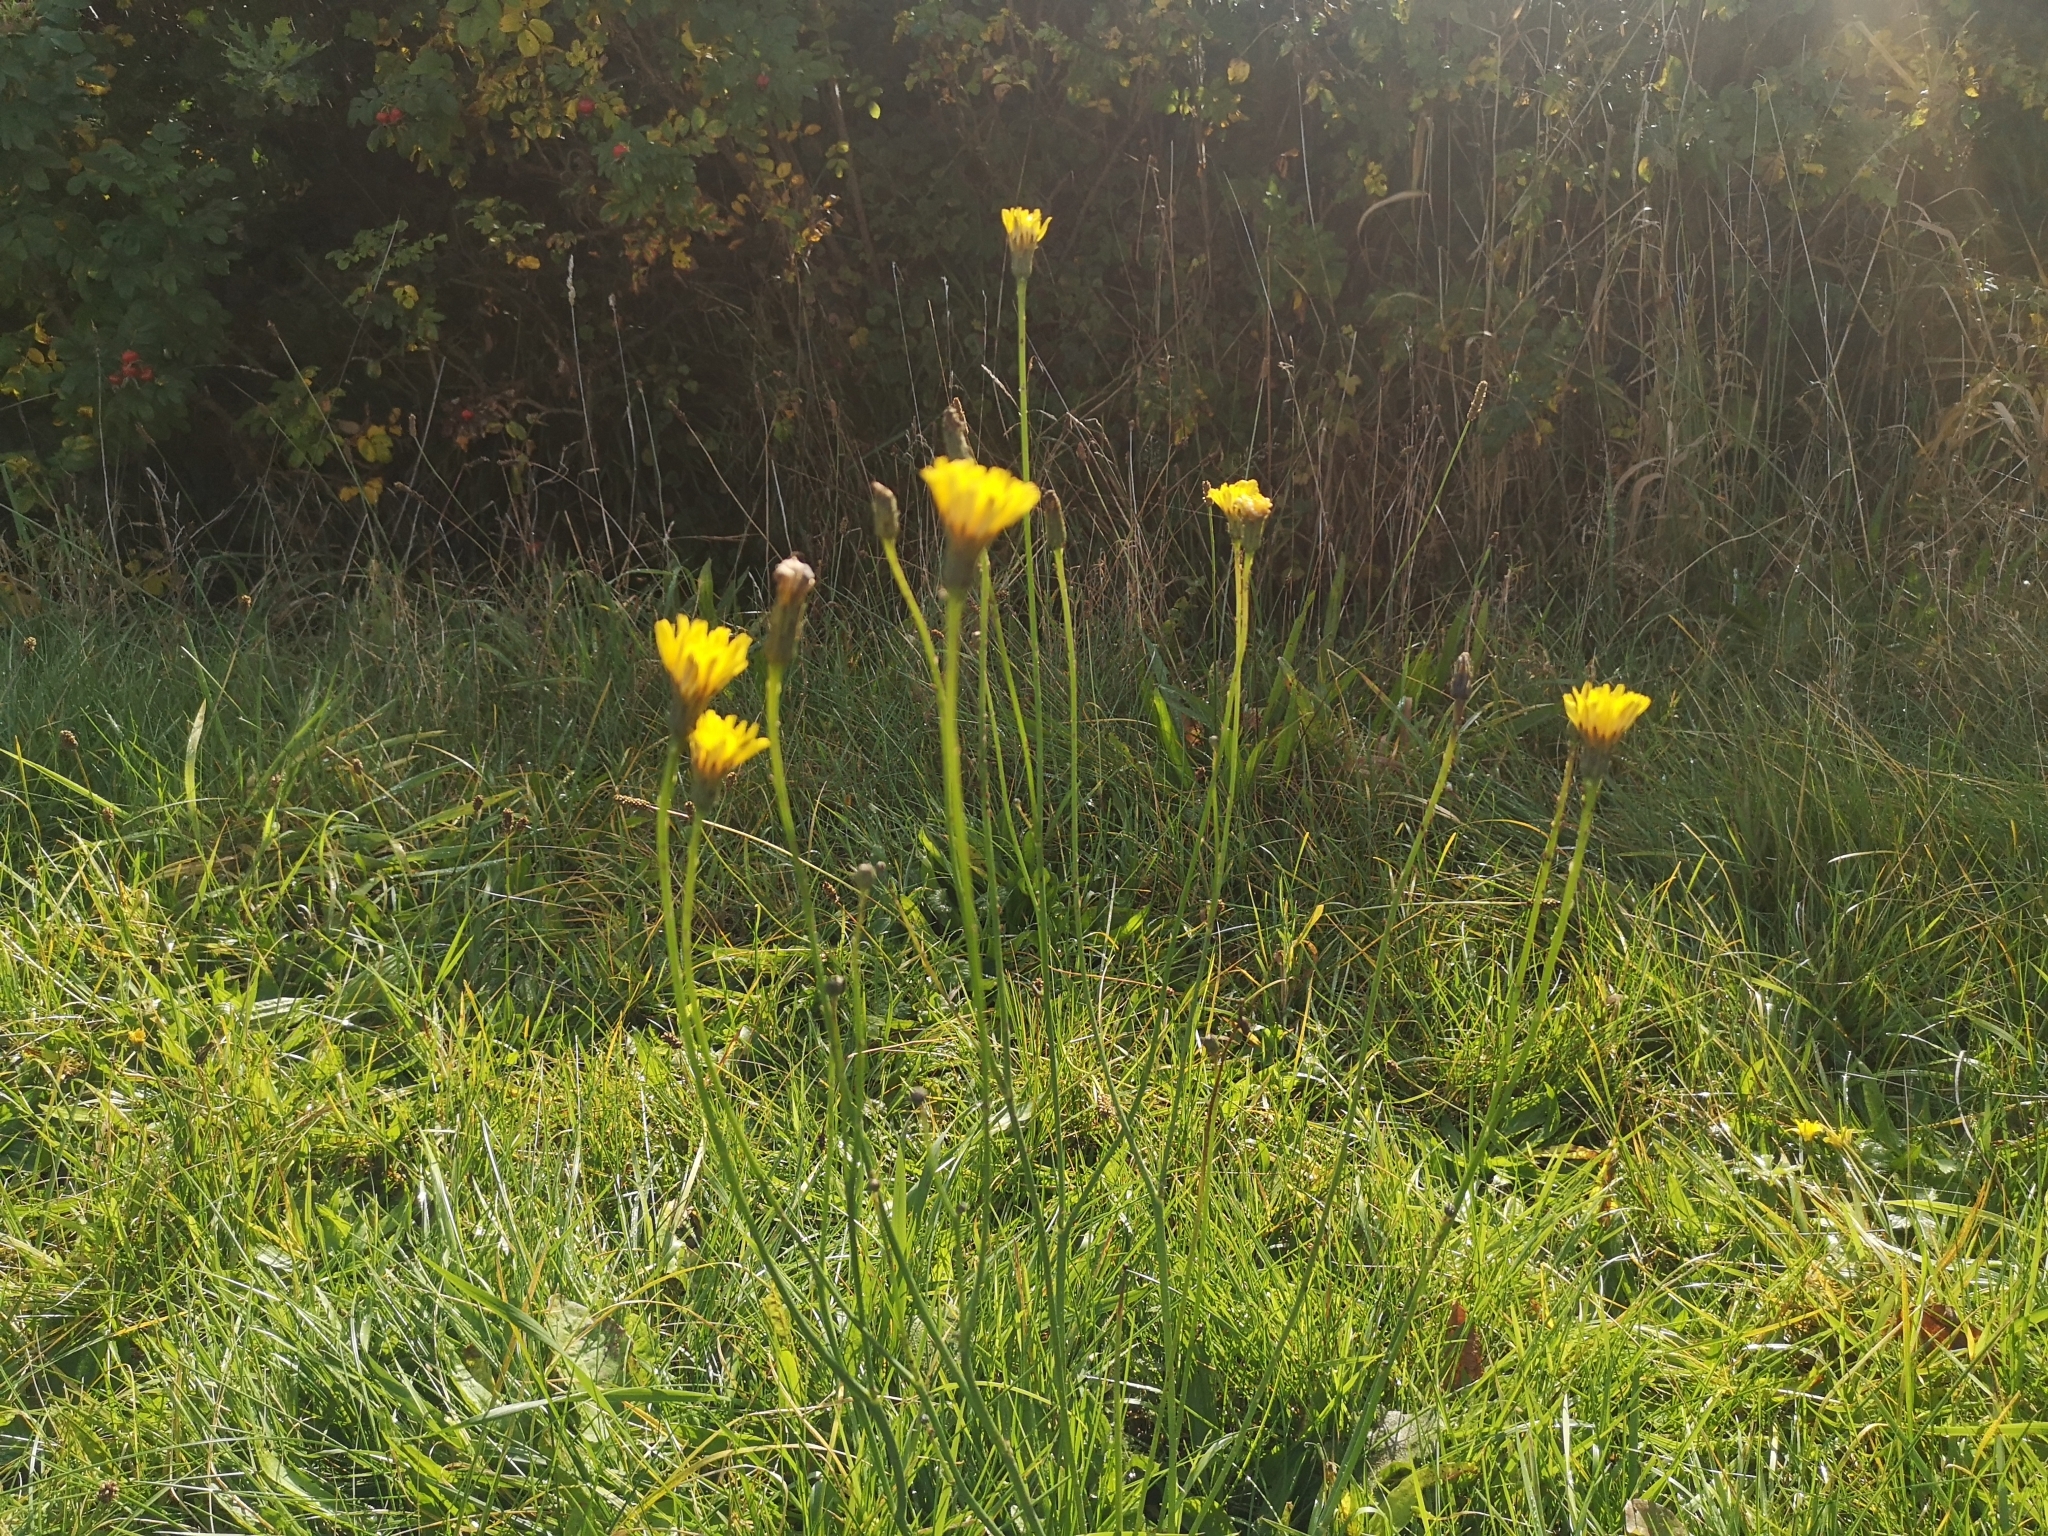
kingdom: Plantae
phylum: Tracheophyta
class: Magnoliopsida
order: Asterales
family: Asteraceae
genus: Hypochaeris
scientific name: Hypochaeris radicata
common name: Flatweed
